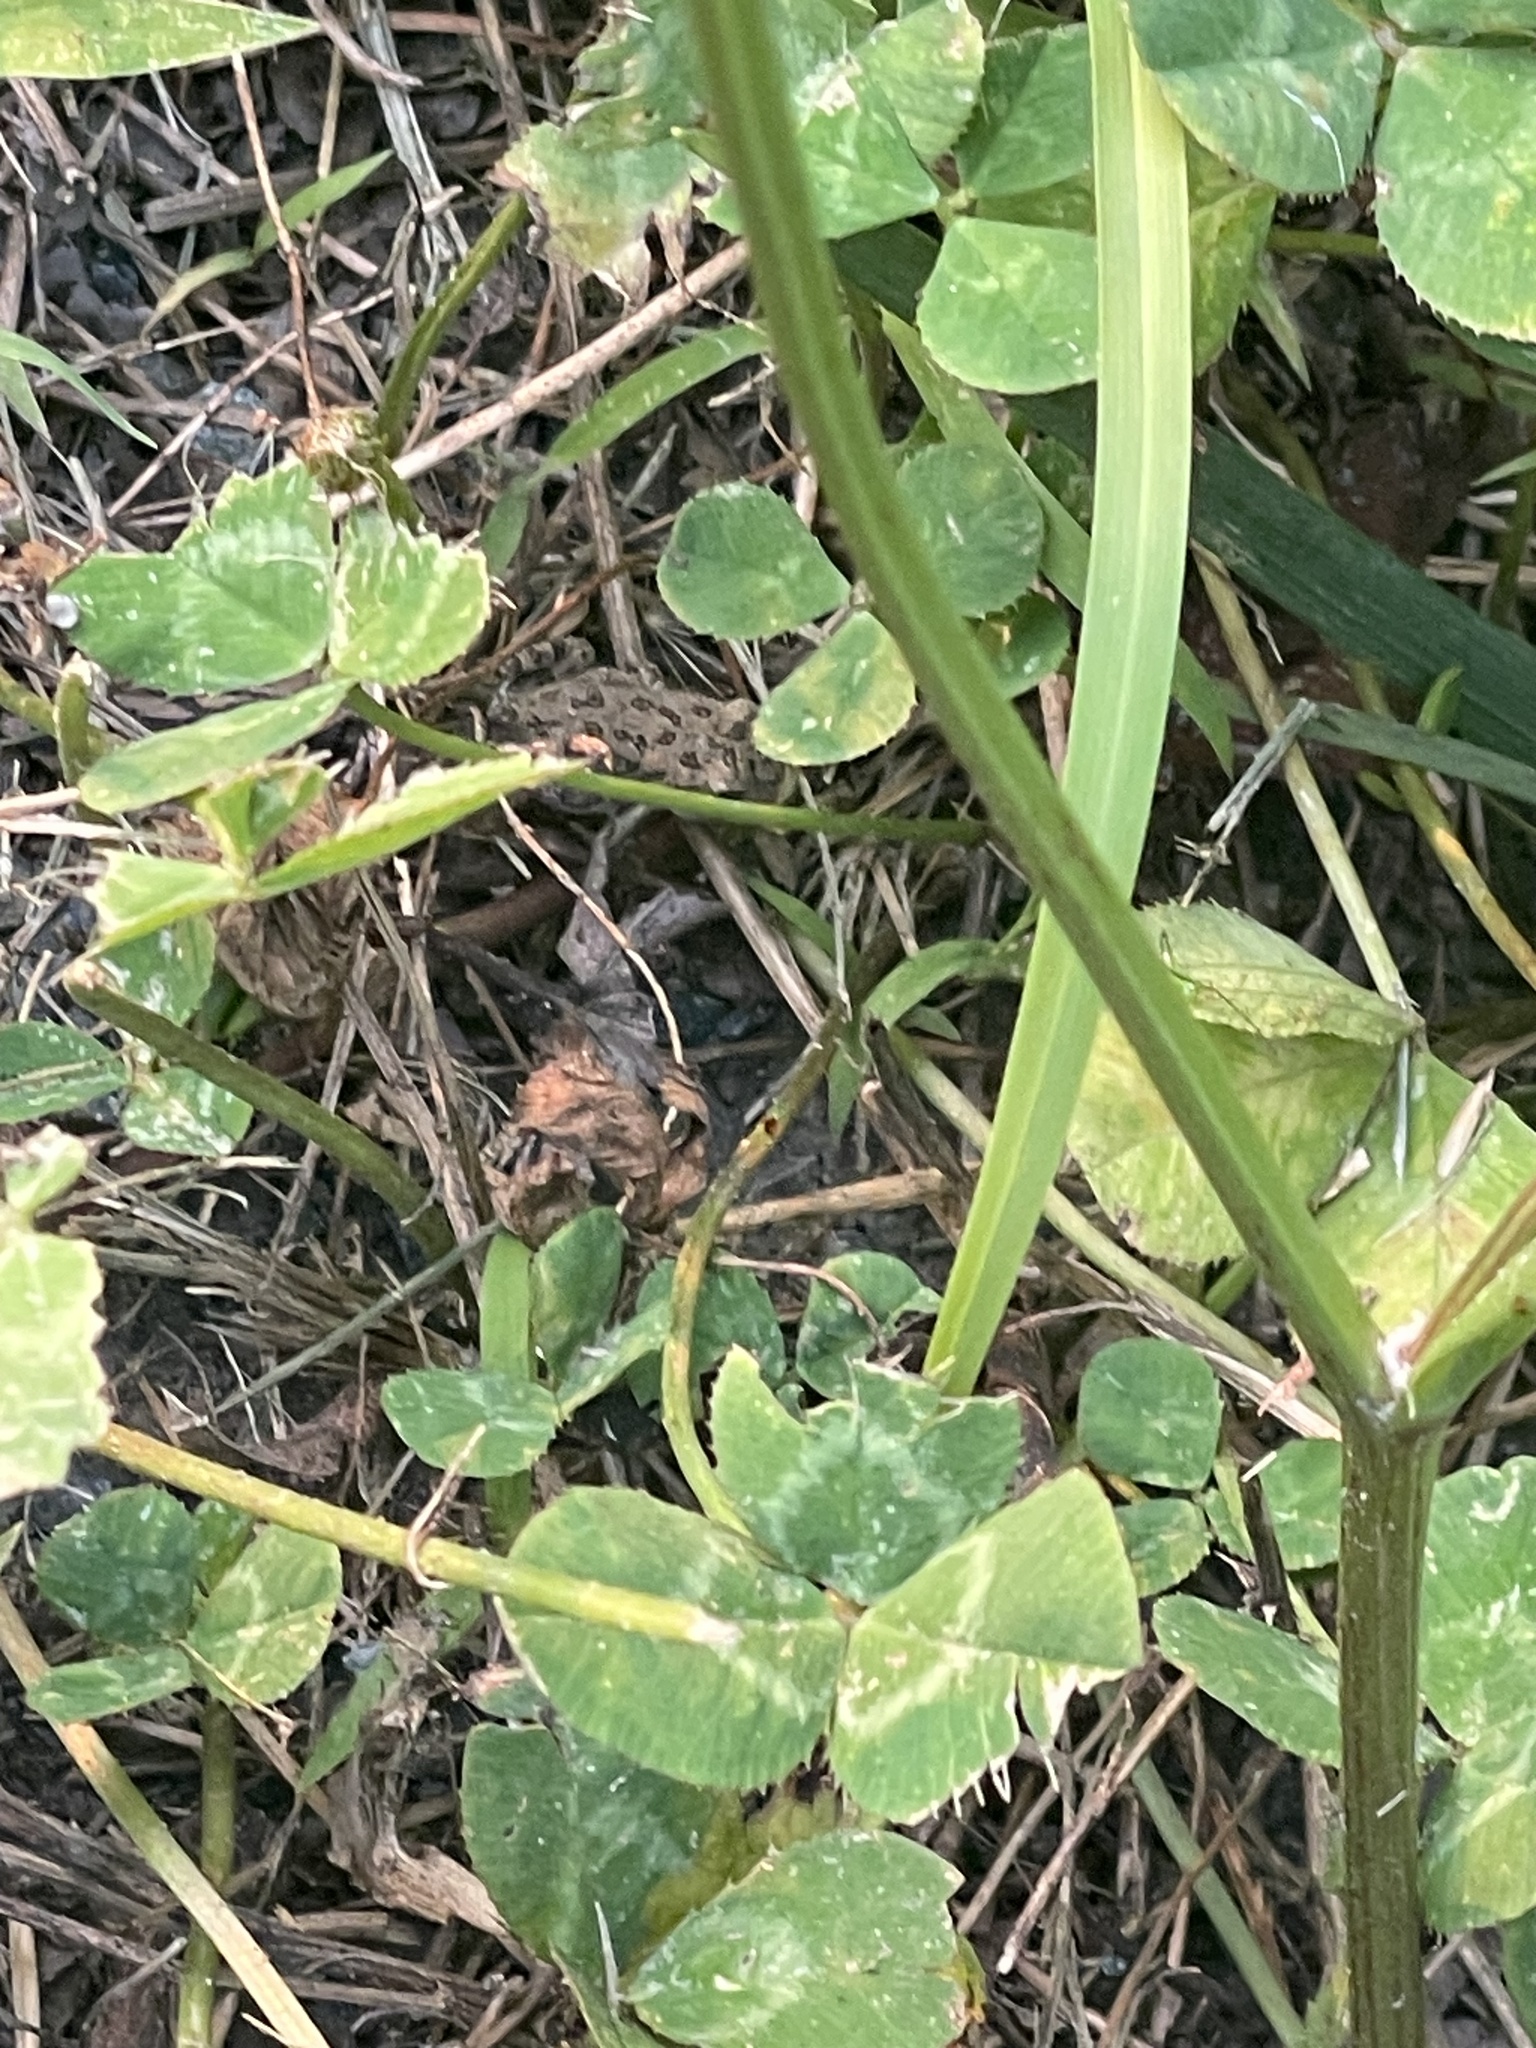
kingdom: Animalia
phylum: Chordata
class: Amphibia
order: Anura
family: Bufonidae
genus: Anaxyrus
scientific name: Anaxyrus fowleri
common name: Fowler's toad
